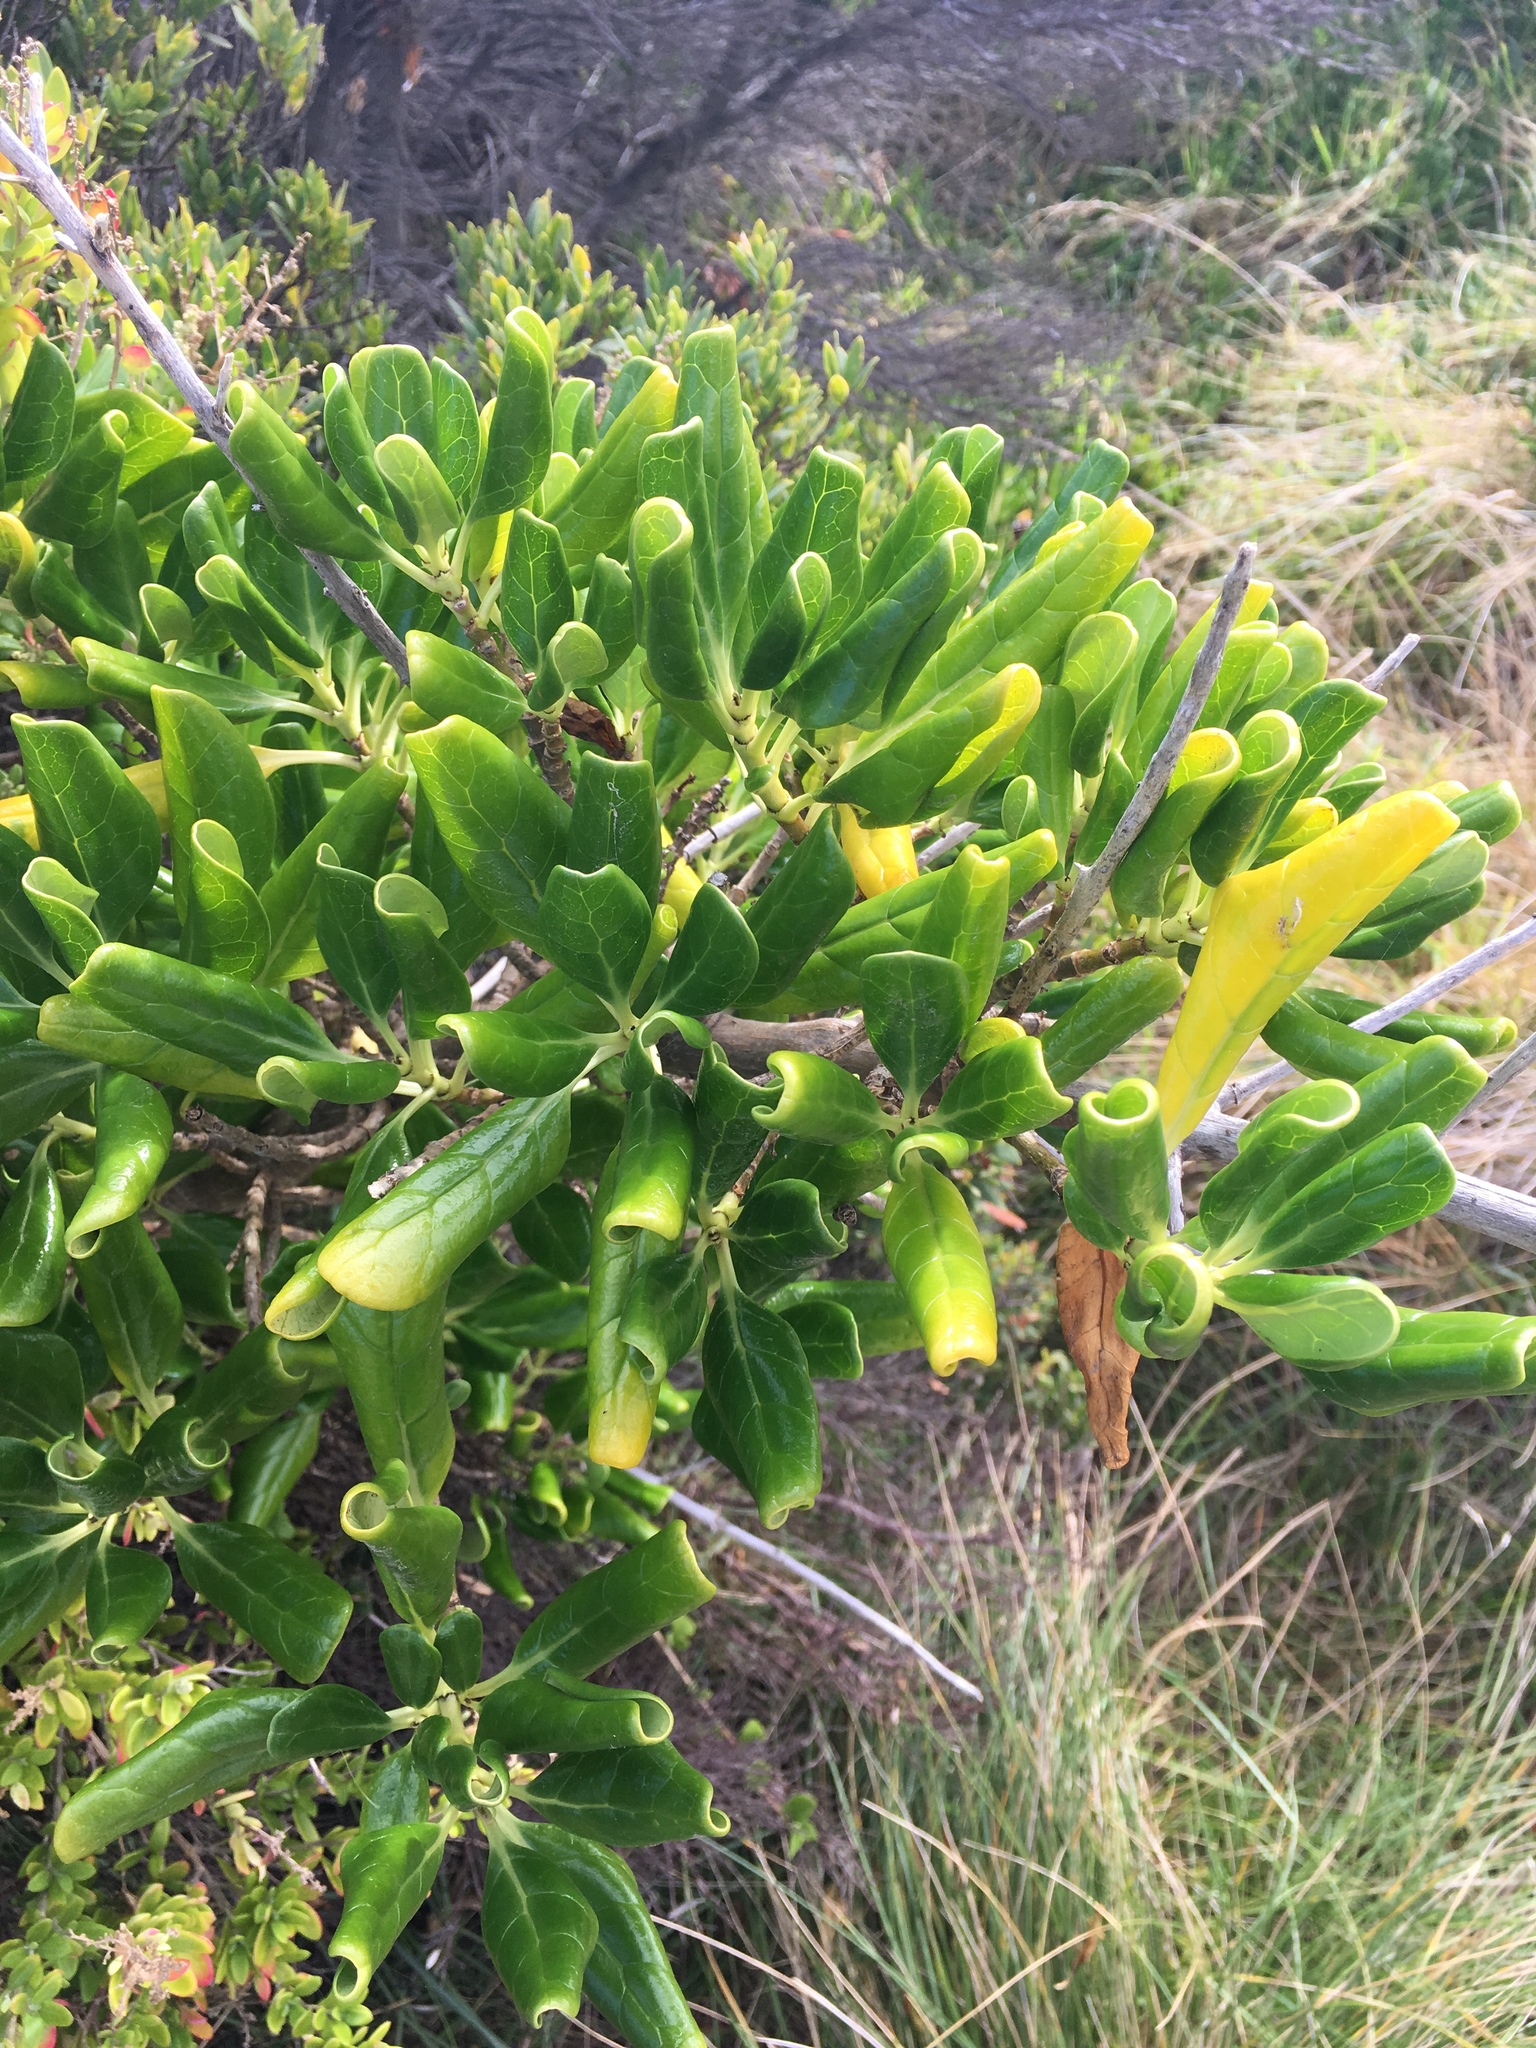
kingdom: Plantae
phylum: Tracheophyta
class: Magnoliopsida
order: Gentianales
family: Rubiaceae
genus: Coprosma
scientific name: Coprosma repens
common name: Tree bedstraw
